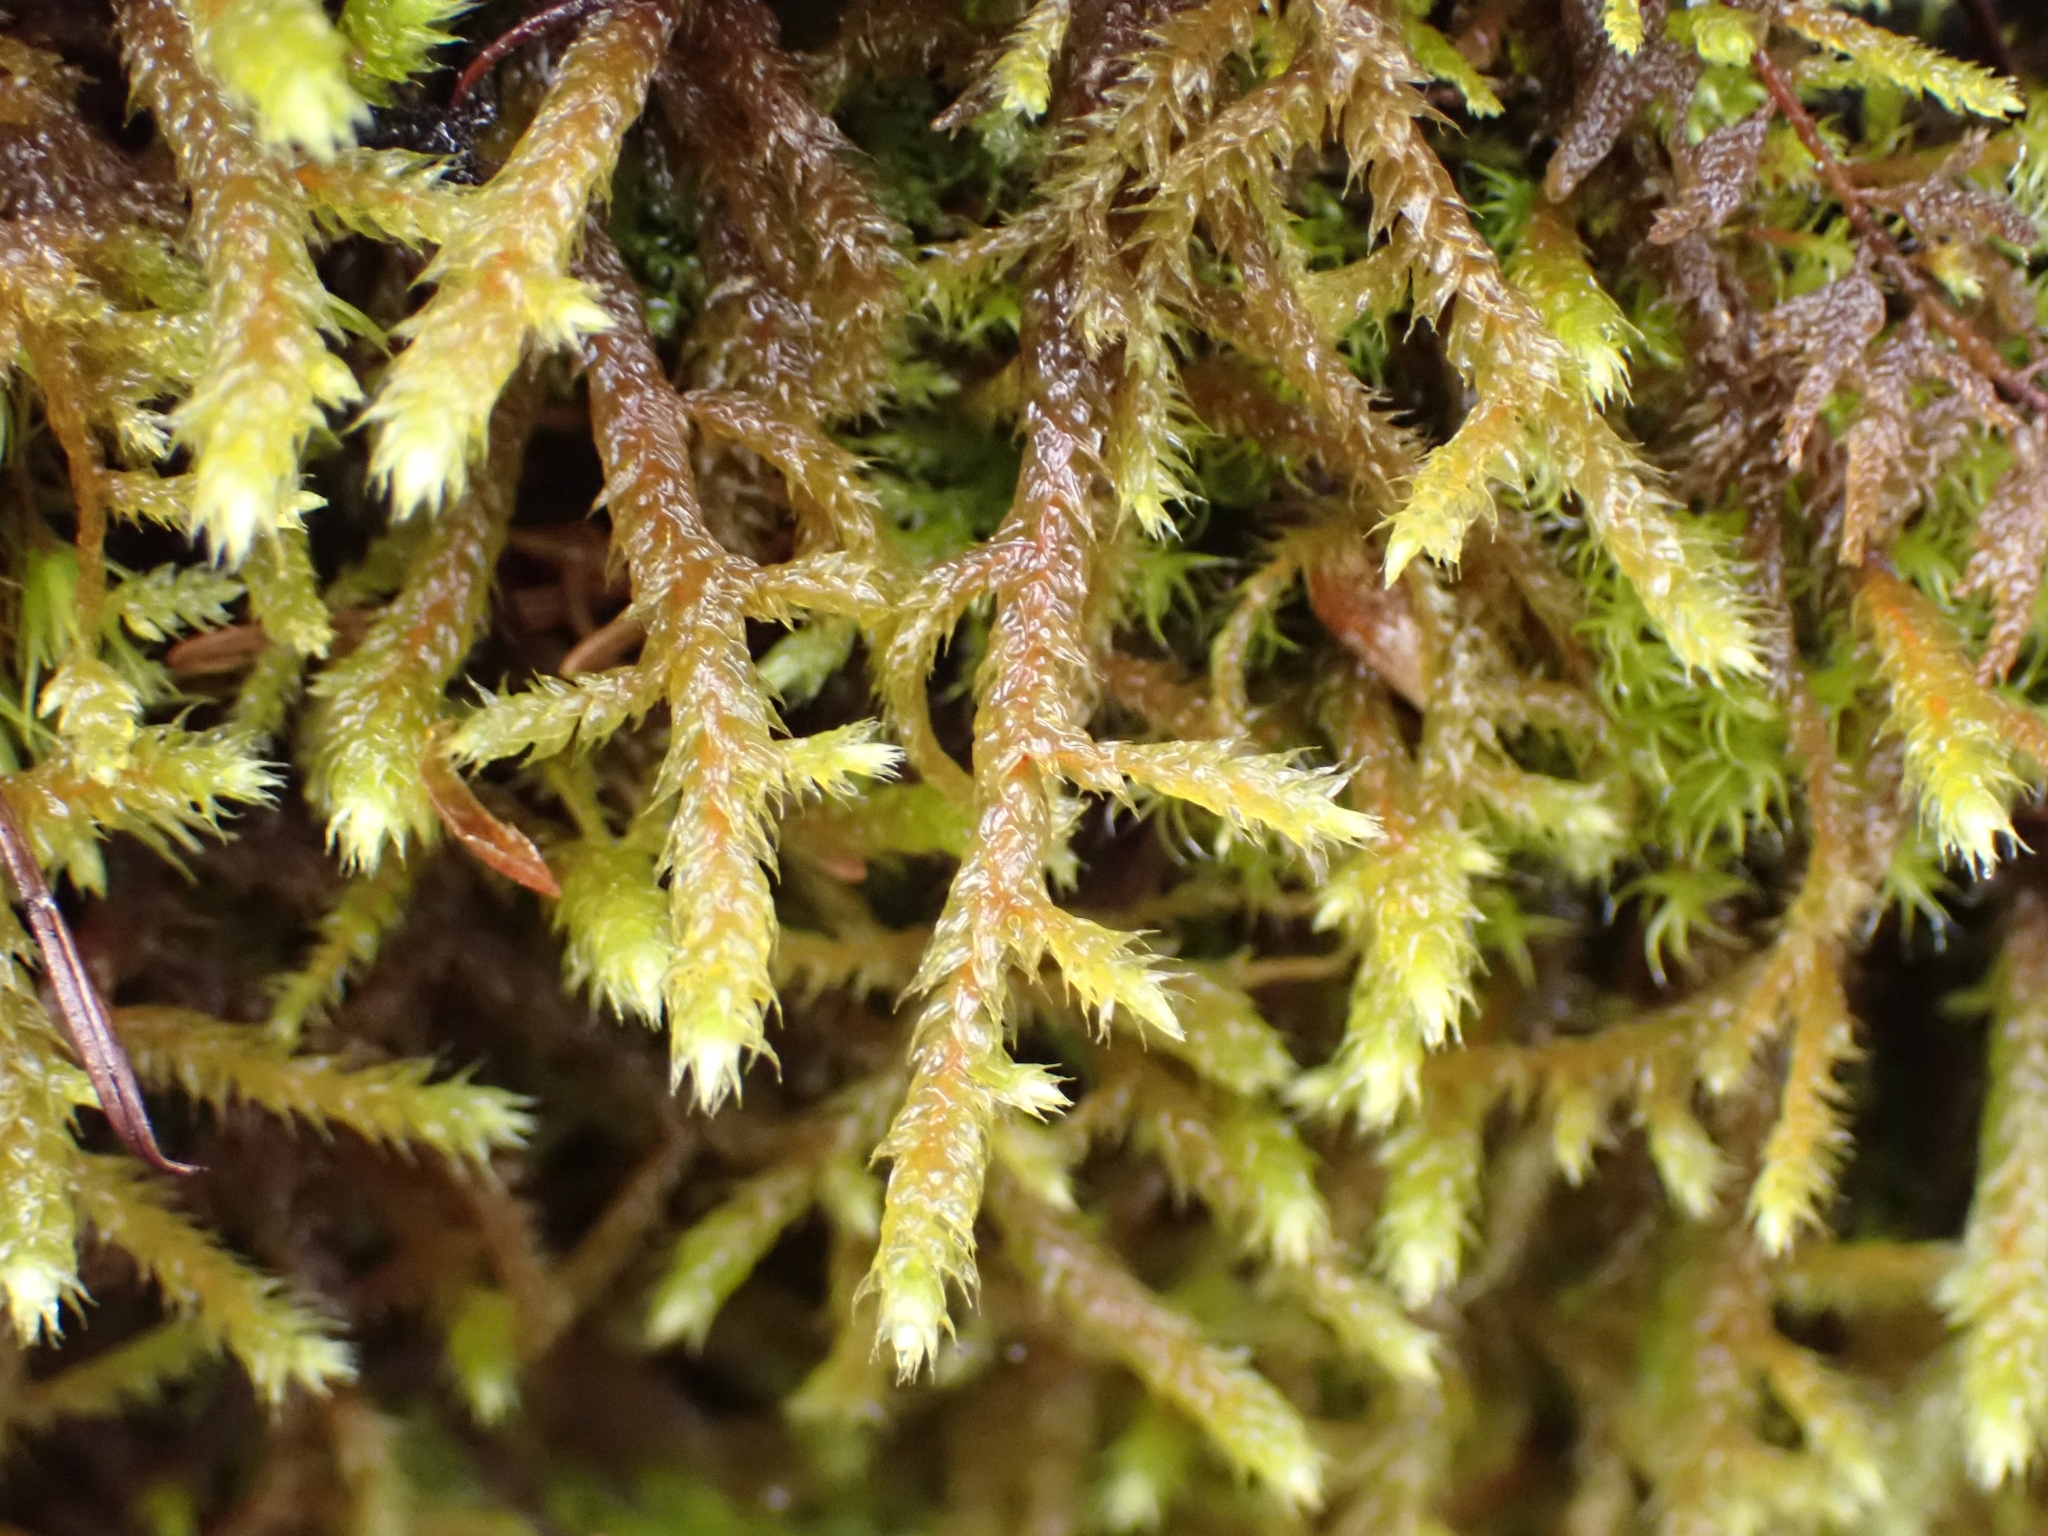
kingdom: Plantae
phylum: Bryophyta
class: Bryopsida
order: Hypnales
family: Antitrichiaceae
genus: Antitrichia
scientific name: Antitrichia curtipendula
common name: Pendulous wing-moss
